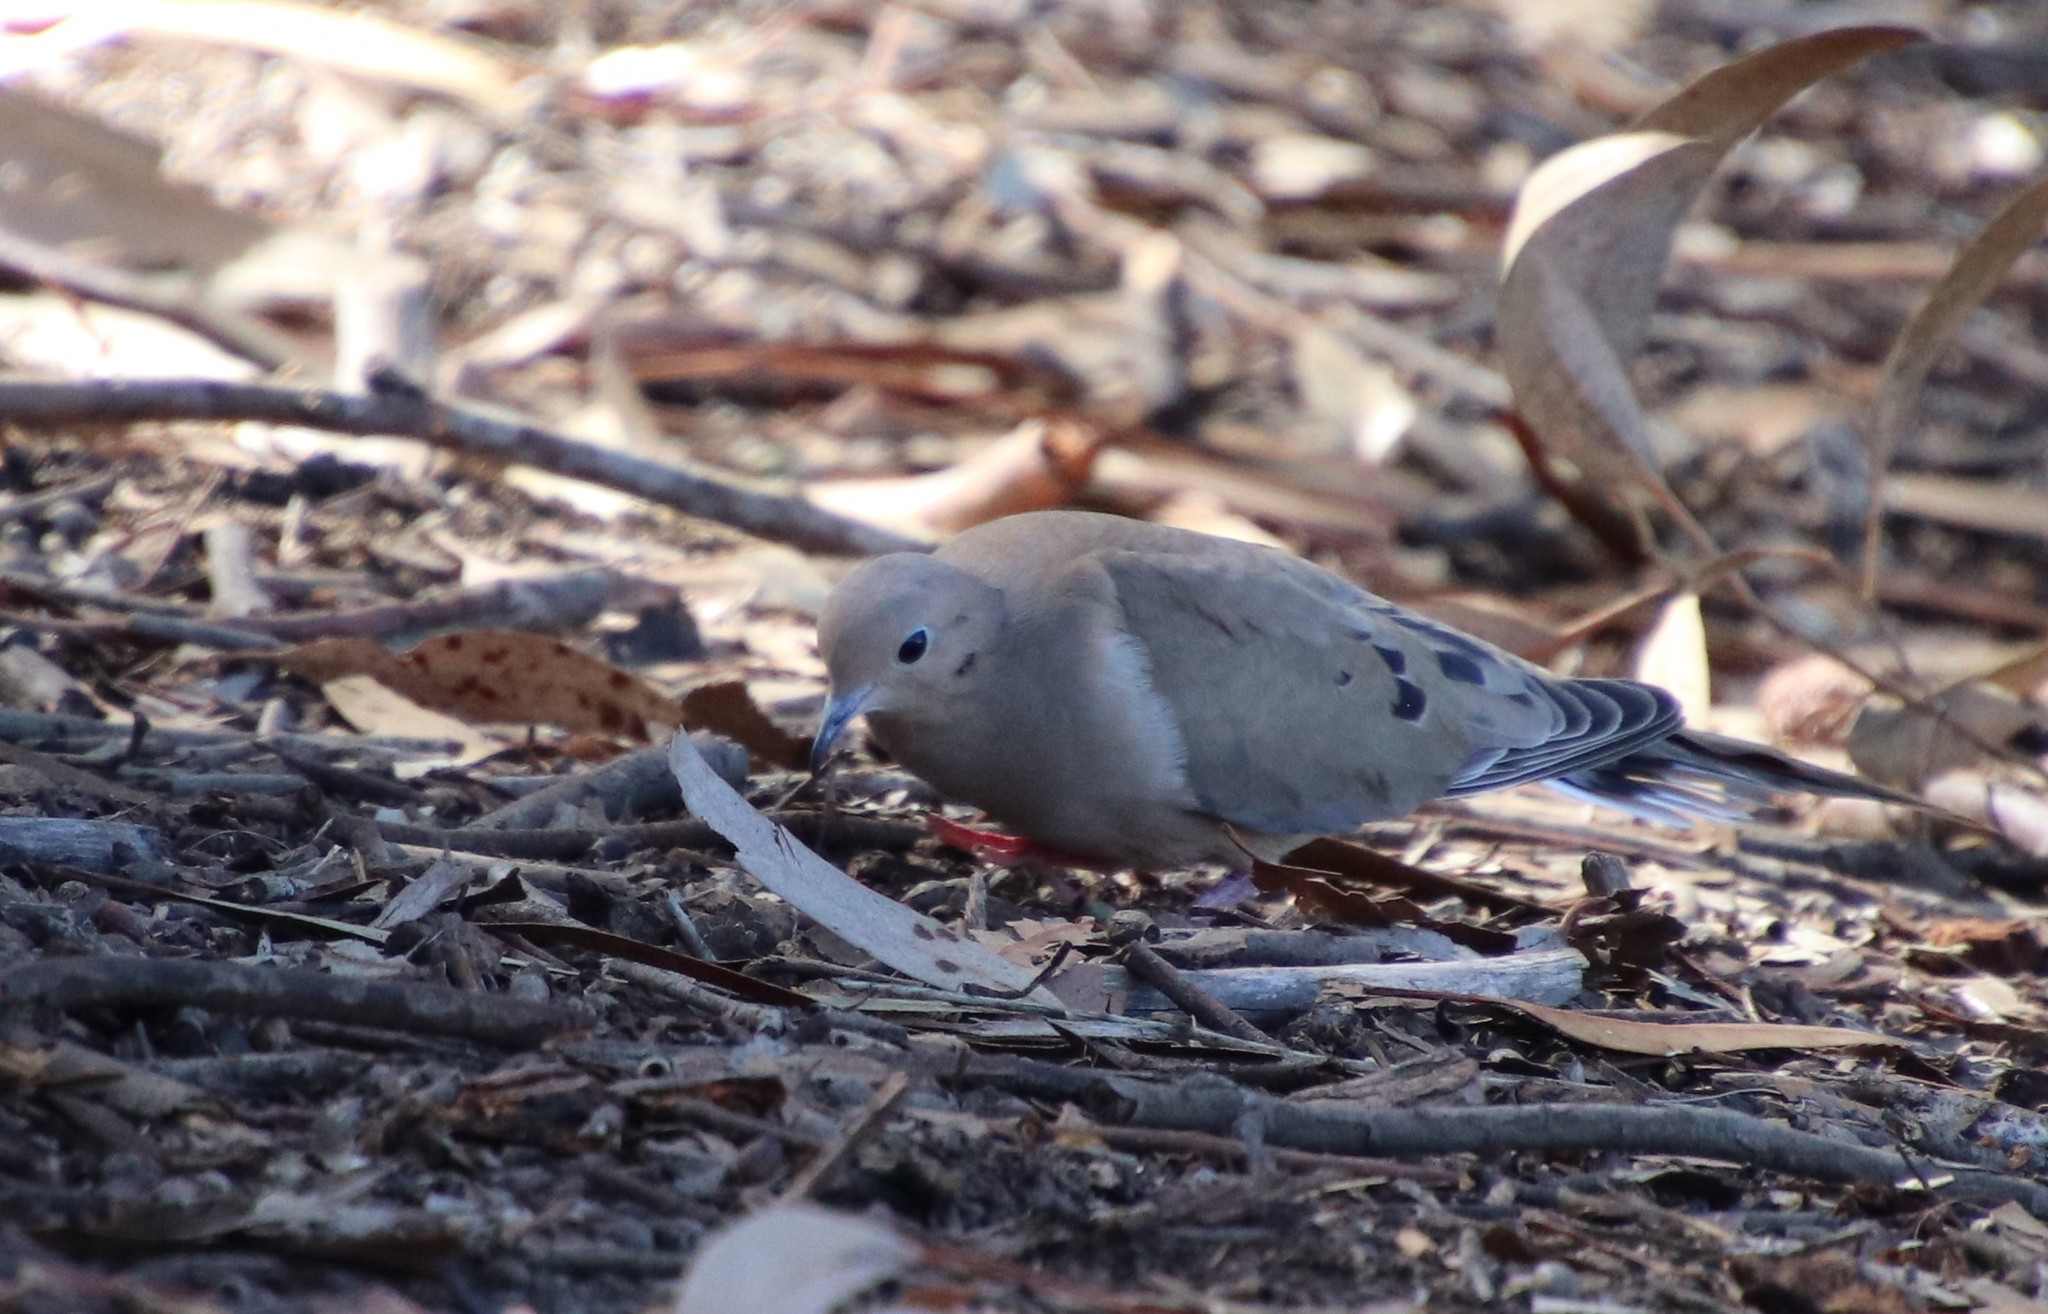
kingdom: Animalia
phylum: Chordata
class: Aves
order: Columbiformes
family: Columbidae
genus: Zenaida
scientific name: Zenaida macroura
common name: Mourning dove
